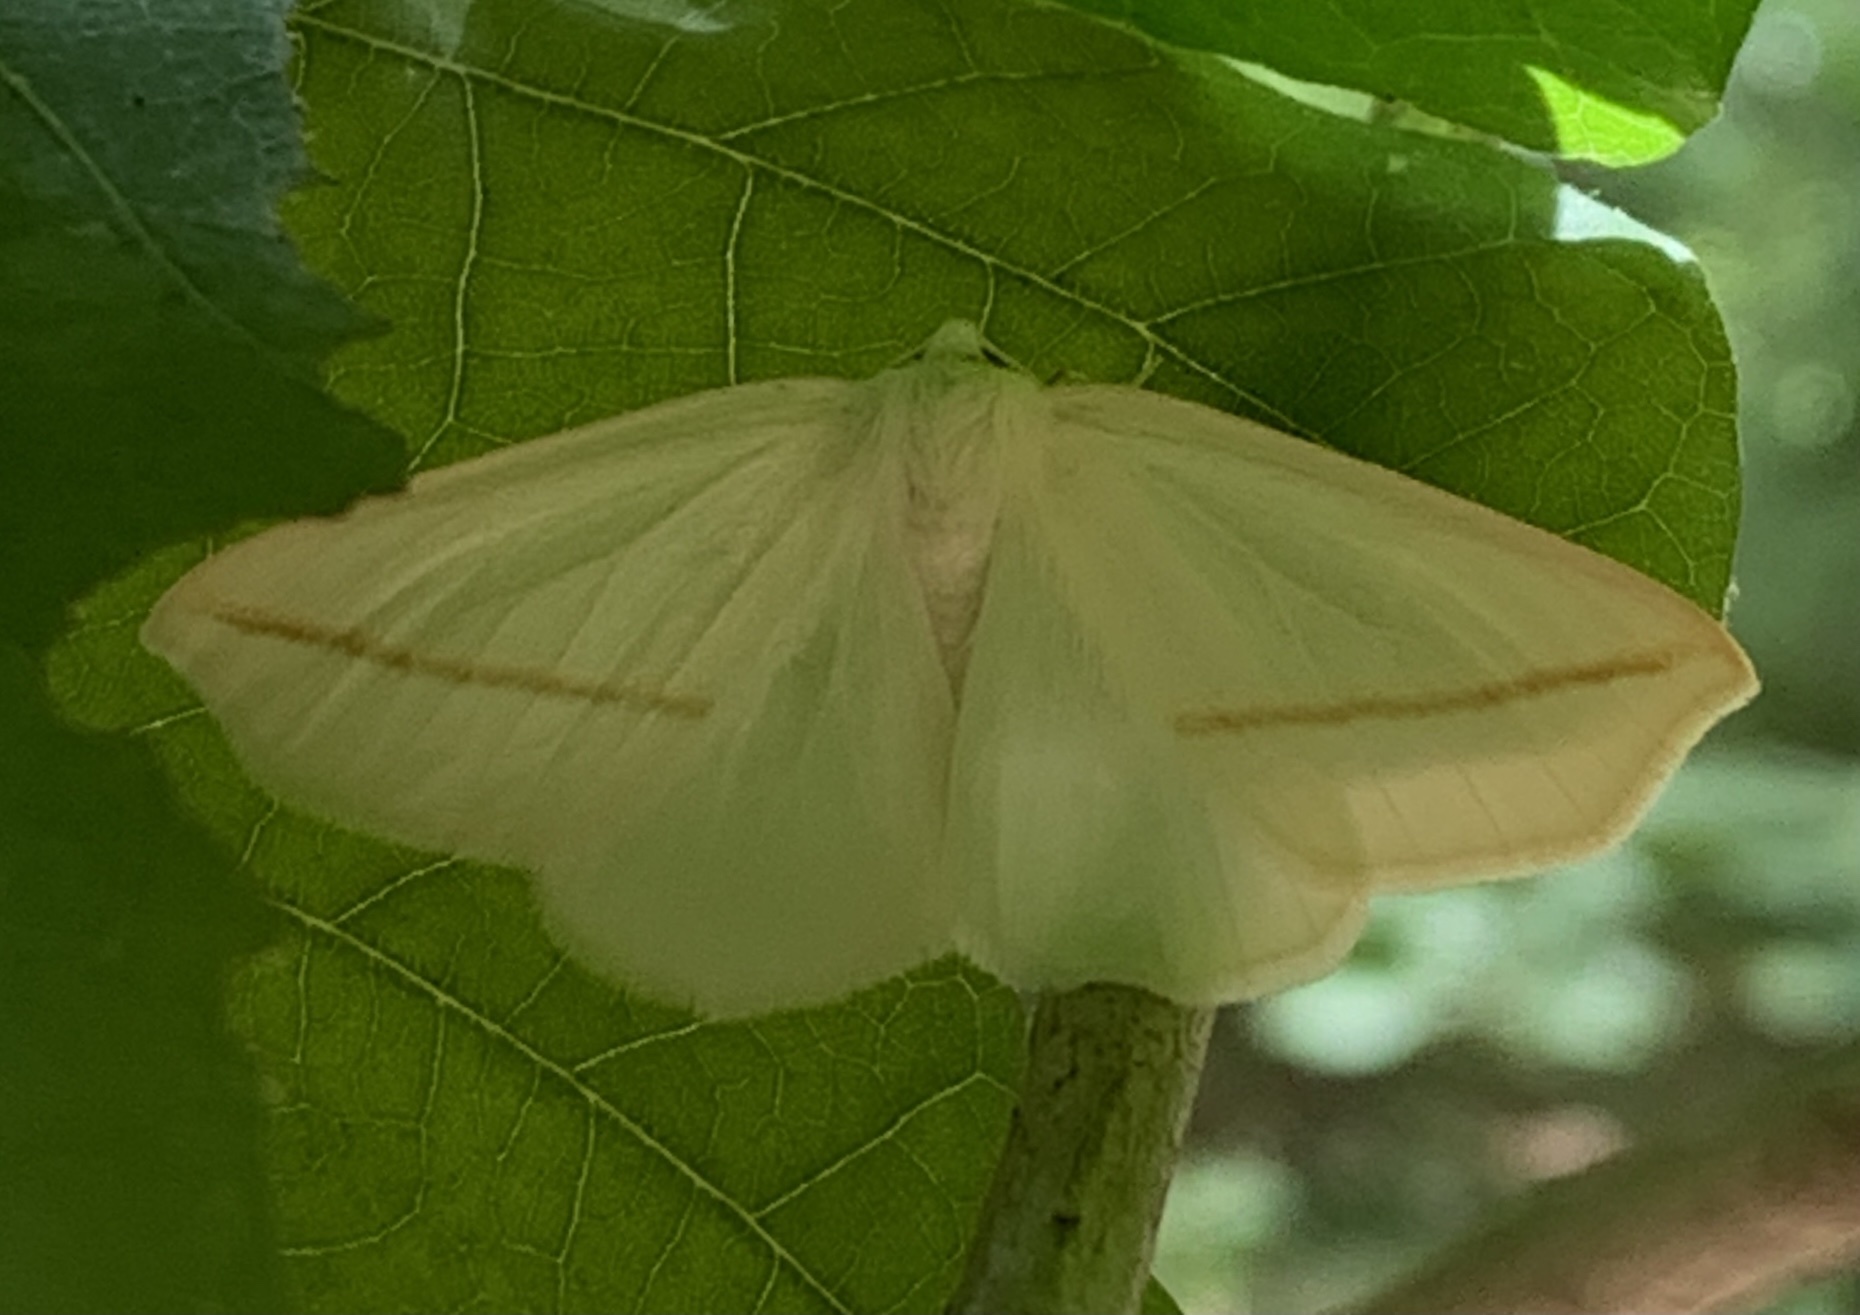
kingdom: Animalia
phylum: Arthropoda
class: Insecta
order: Lepidoptera
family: Geometridae
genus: Tetracis
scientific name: Tetracis cachexiata
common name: White slant-line
